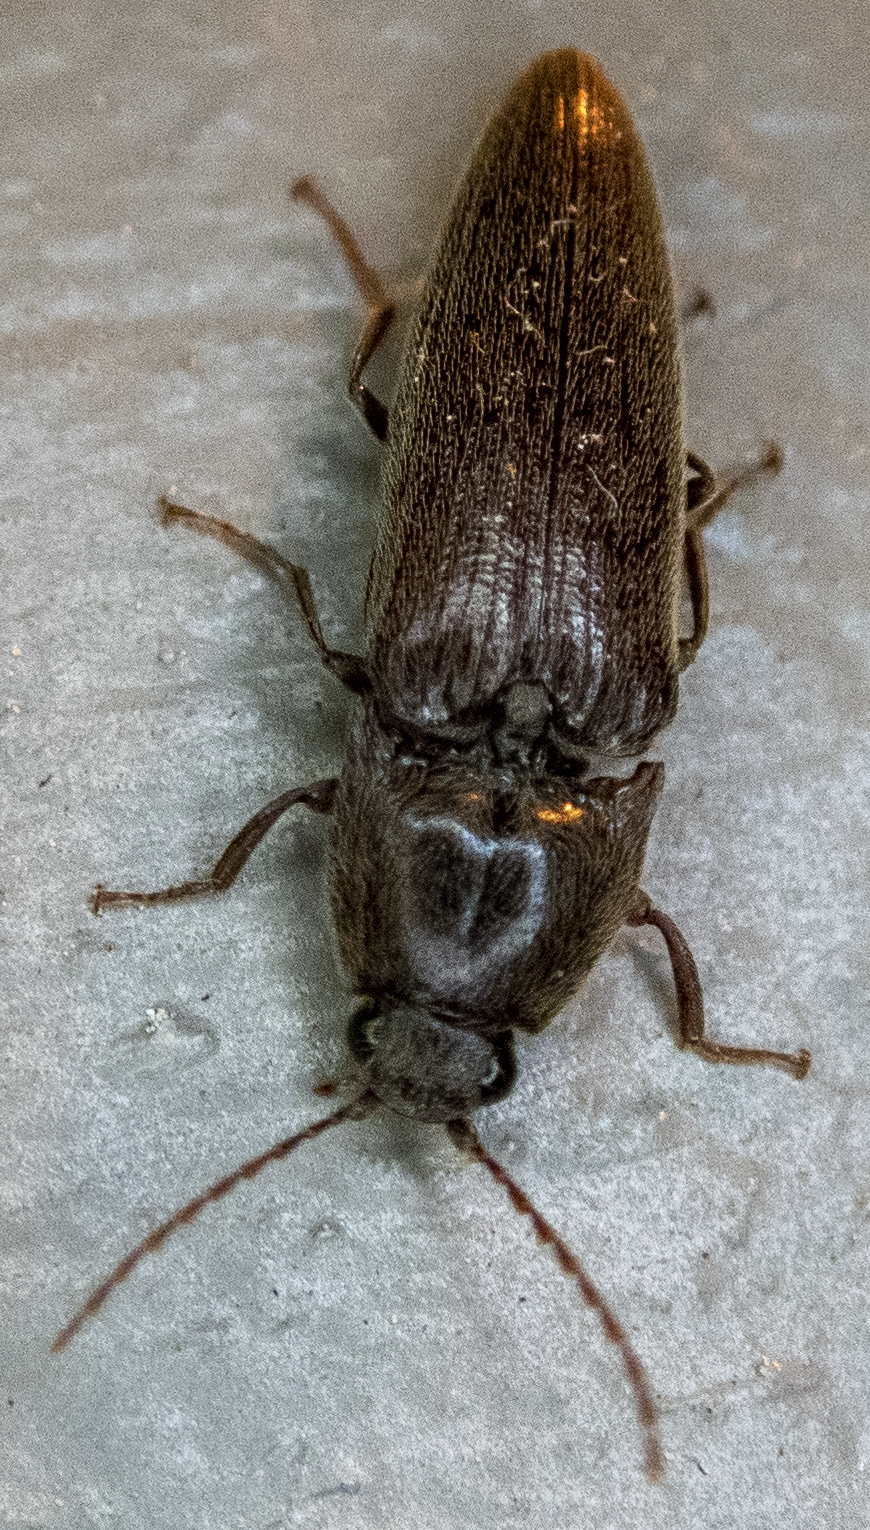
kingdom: Animalia
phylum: Arthropoda
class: Insecta
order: Coleoptera
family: Elateridae
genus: Melanotus
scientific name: Melanotus
